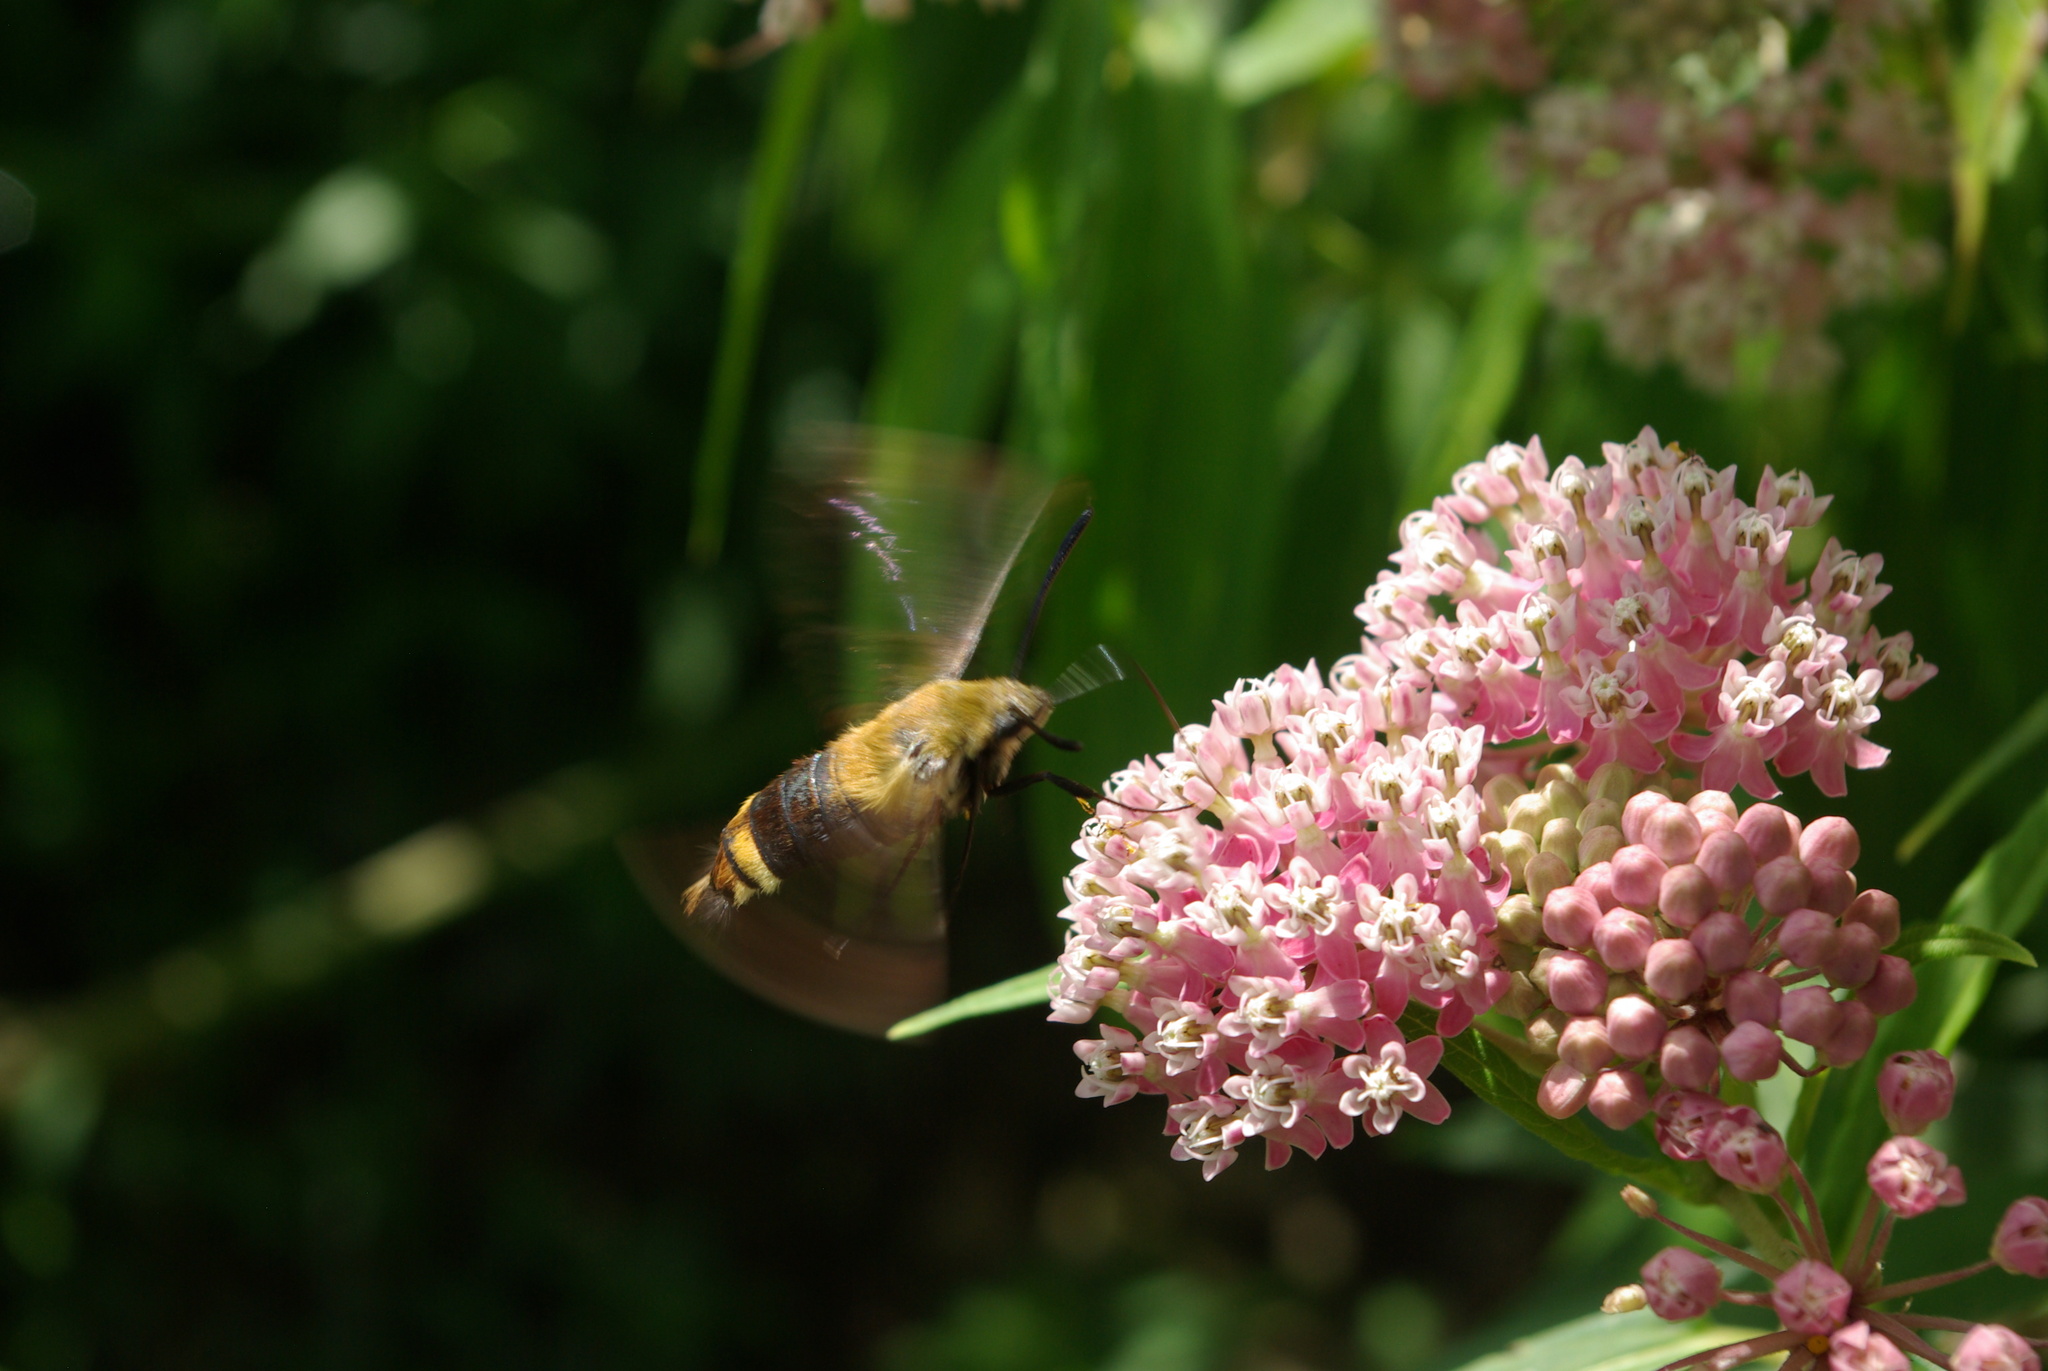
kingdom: Animalia
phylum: Arthropoda
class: Insecta
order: Lepidoptera
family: Sphingidae
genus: Hemaris
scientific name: Hemaris diffinis
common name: Bumblebee moth
